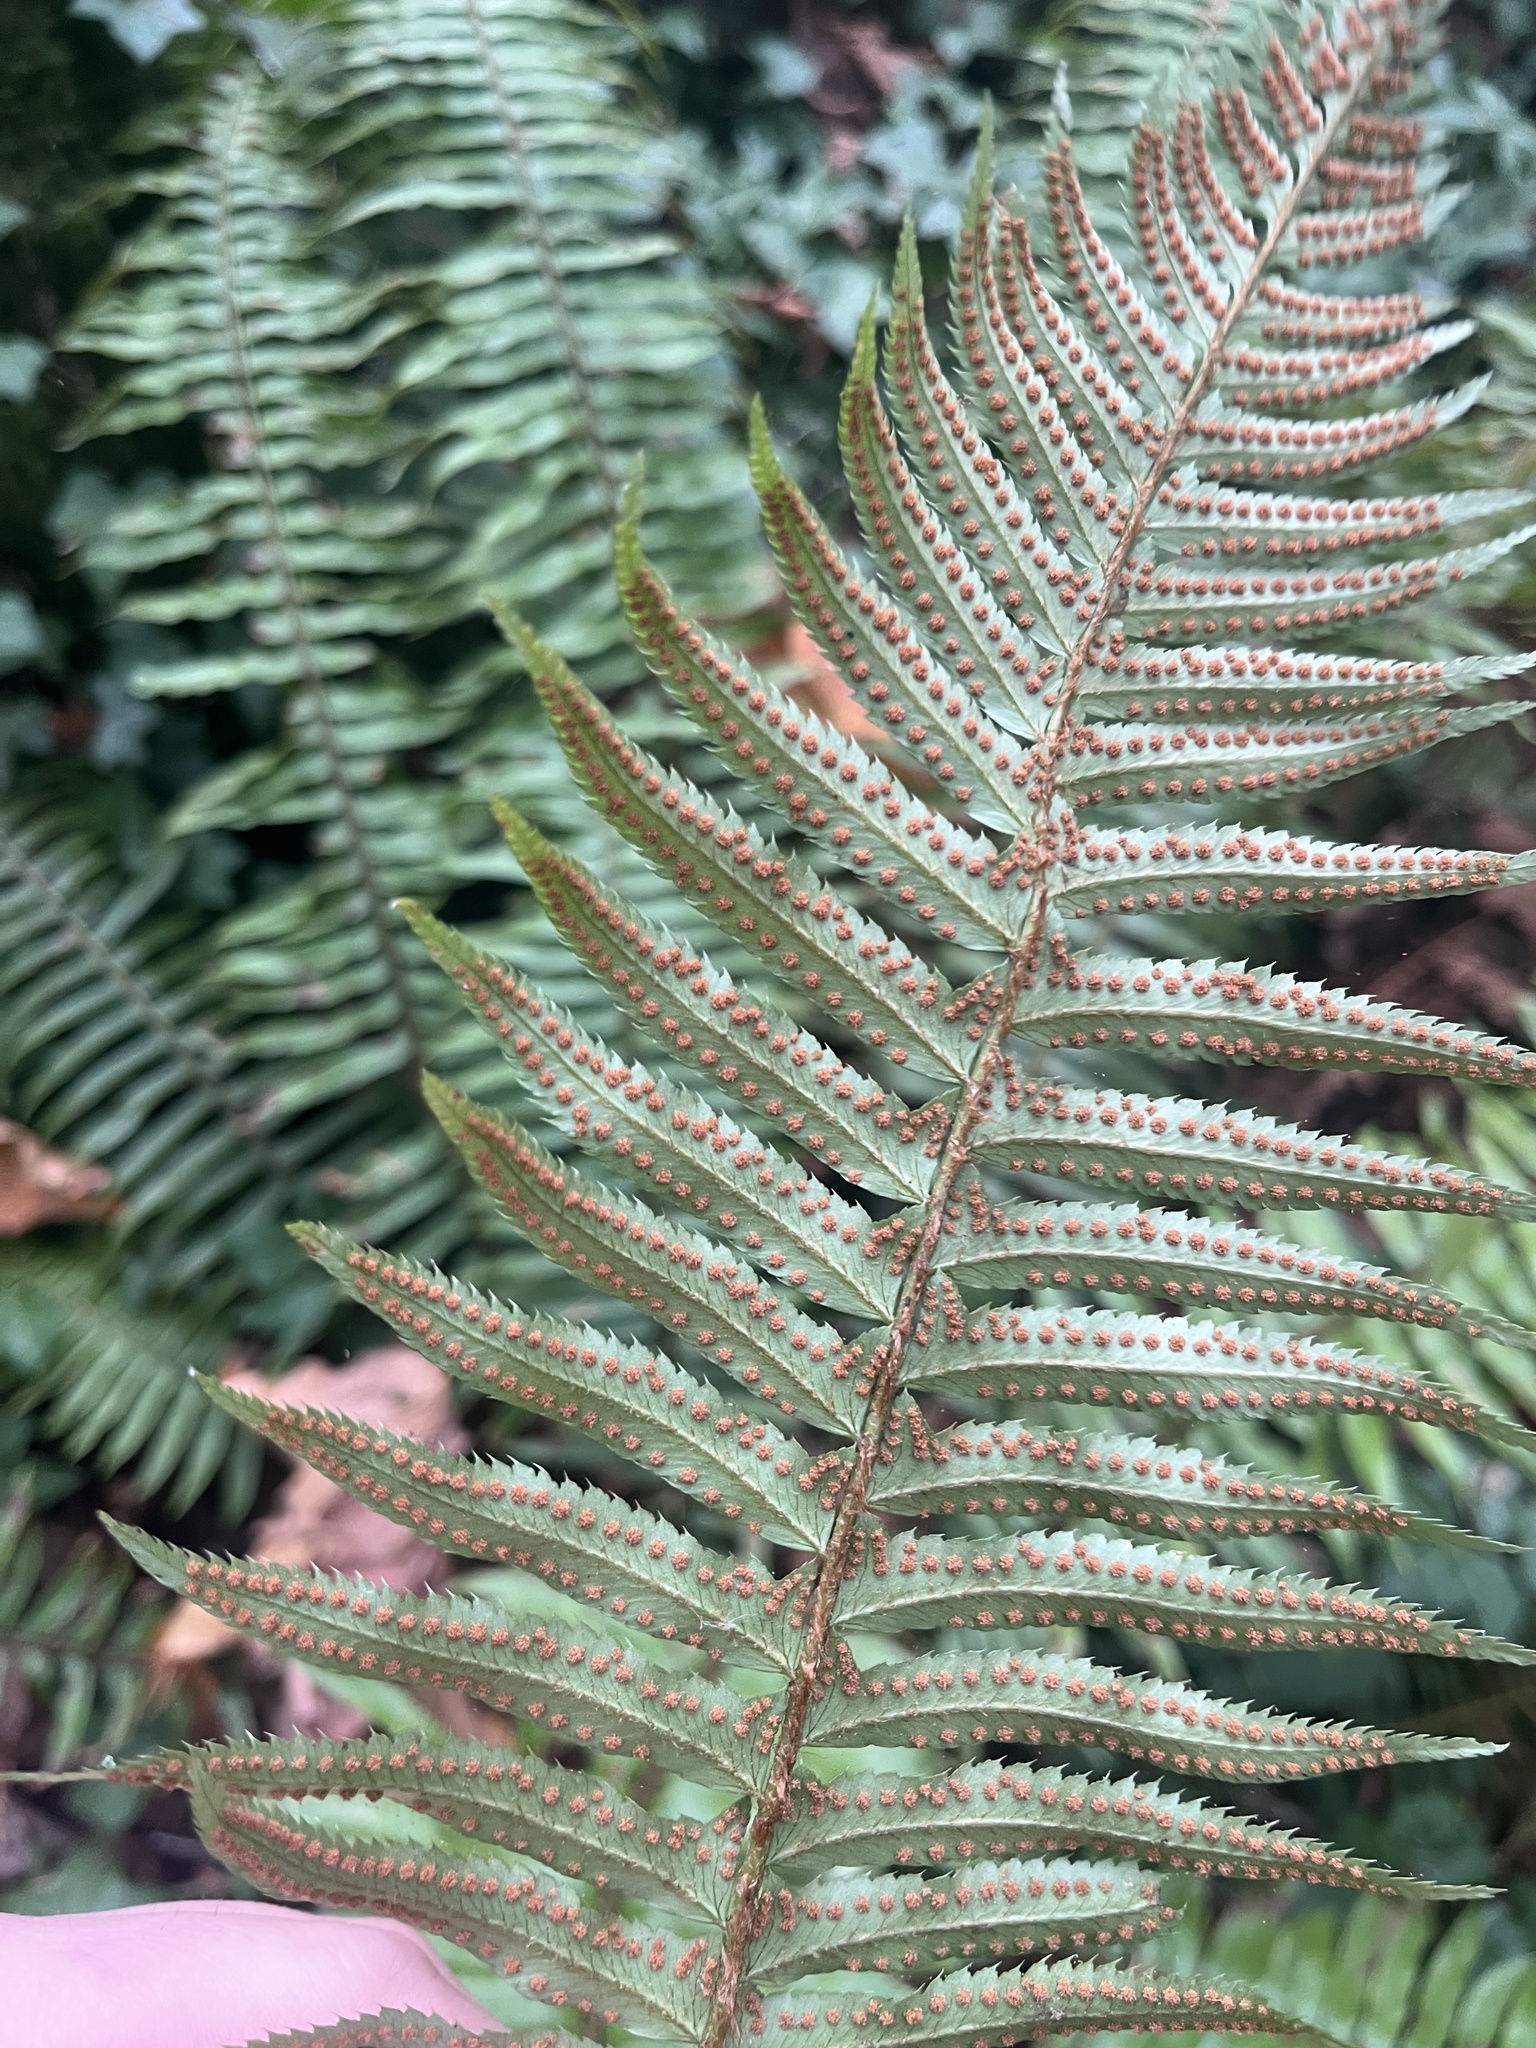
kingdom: Plantae
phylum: Tracheophyta
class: Polypodiopsida
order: Polypodiales
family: Dryopteridaceae
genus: Polystichum
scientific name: Polystichum munitum
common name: Western sword-fern
